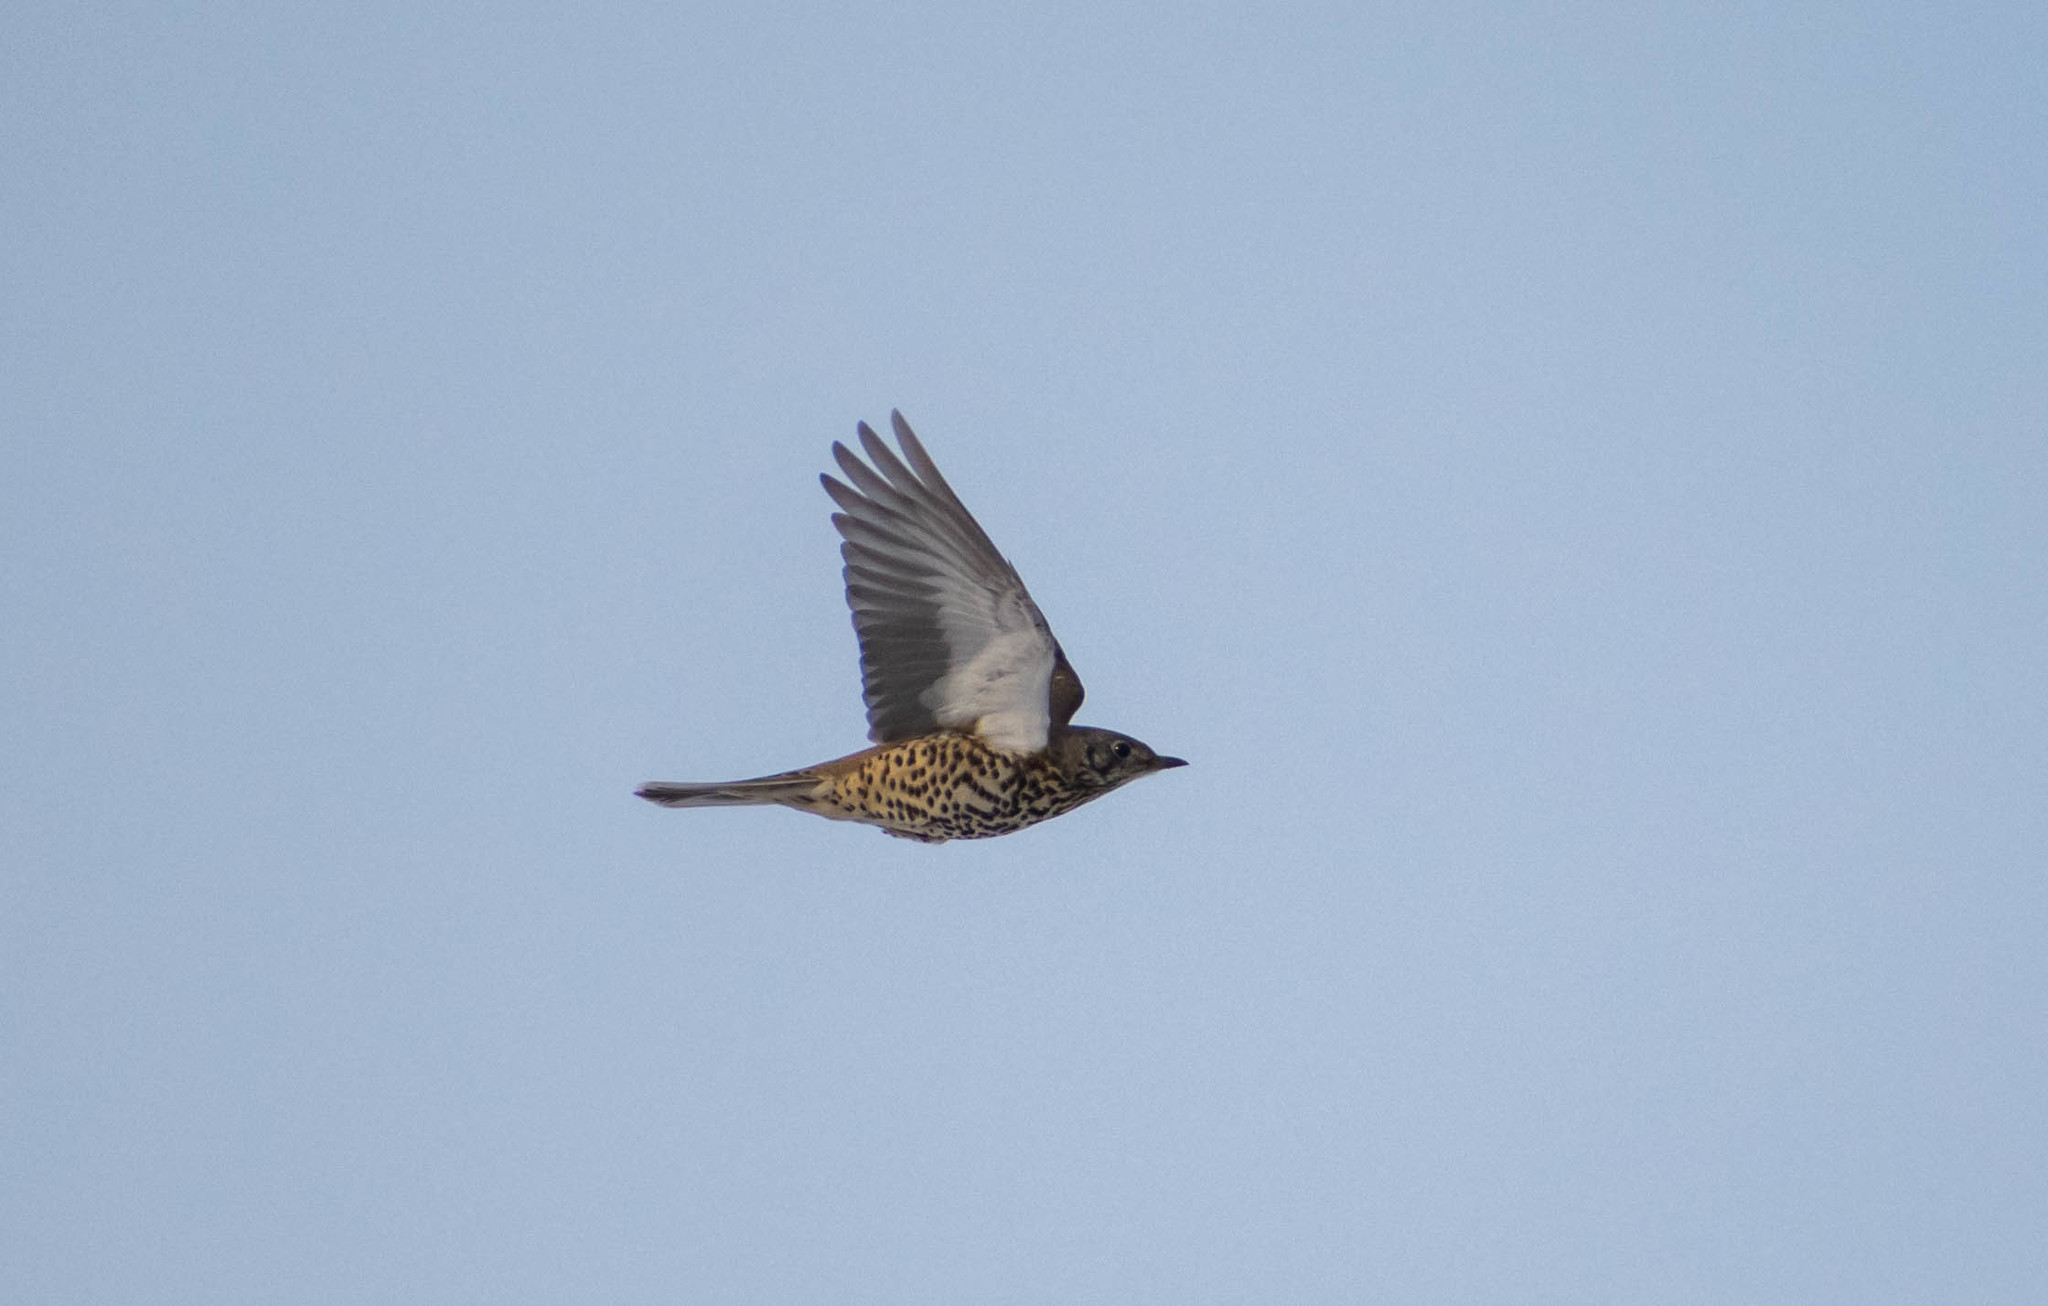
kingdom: Animalia
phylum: Chordata
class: Aves
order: Passeriformes
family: Turdidae
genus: Turdus
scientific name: Turdus viscivorus
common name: Mistle thrush
